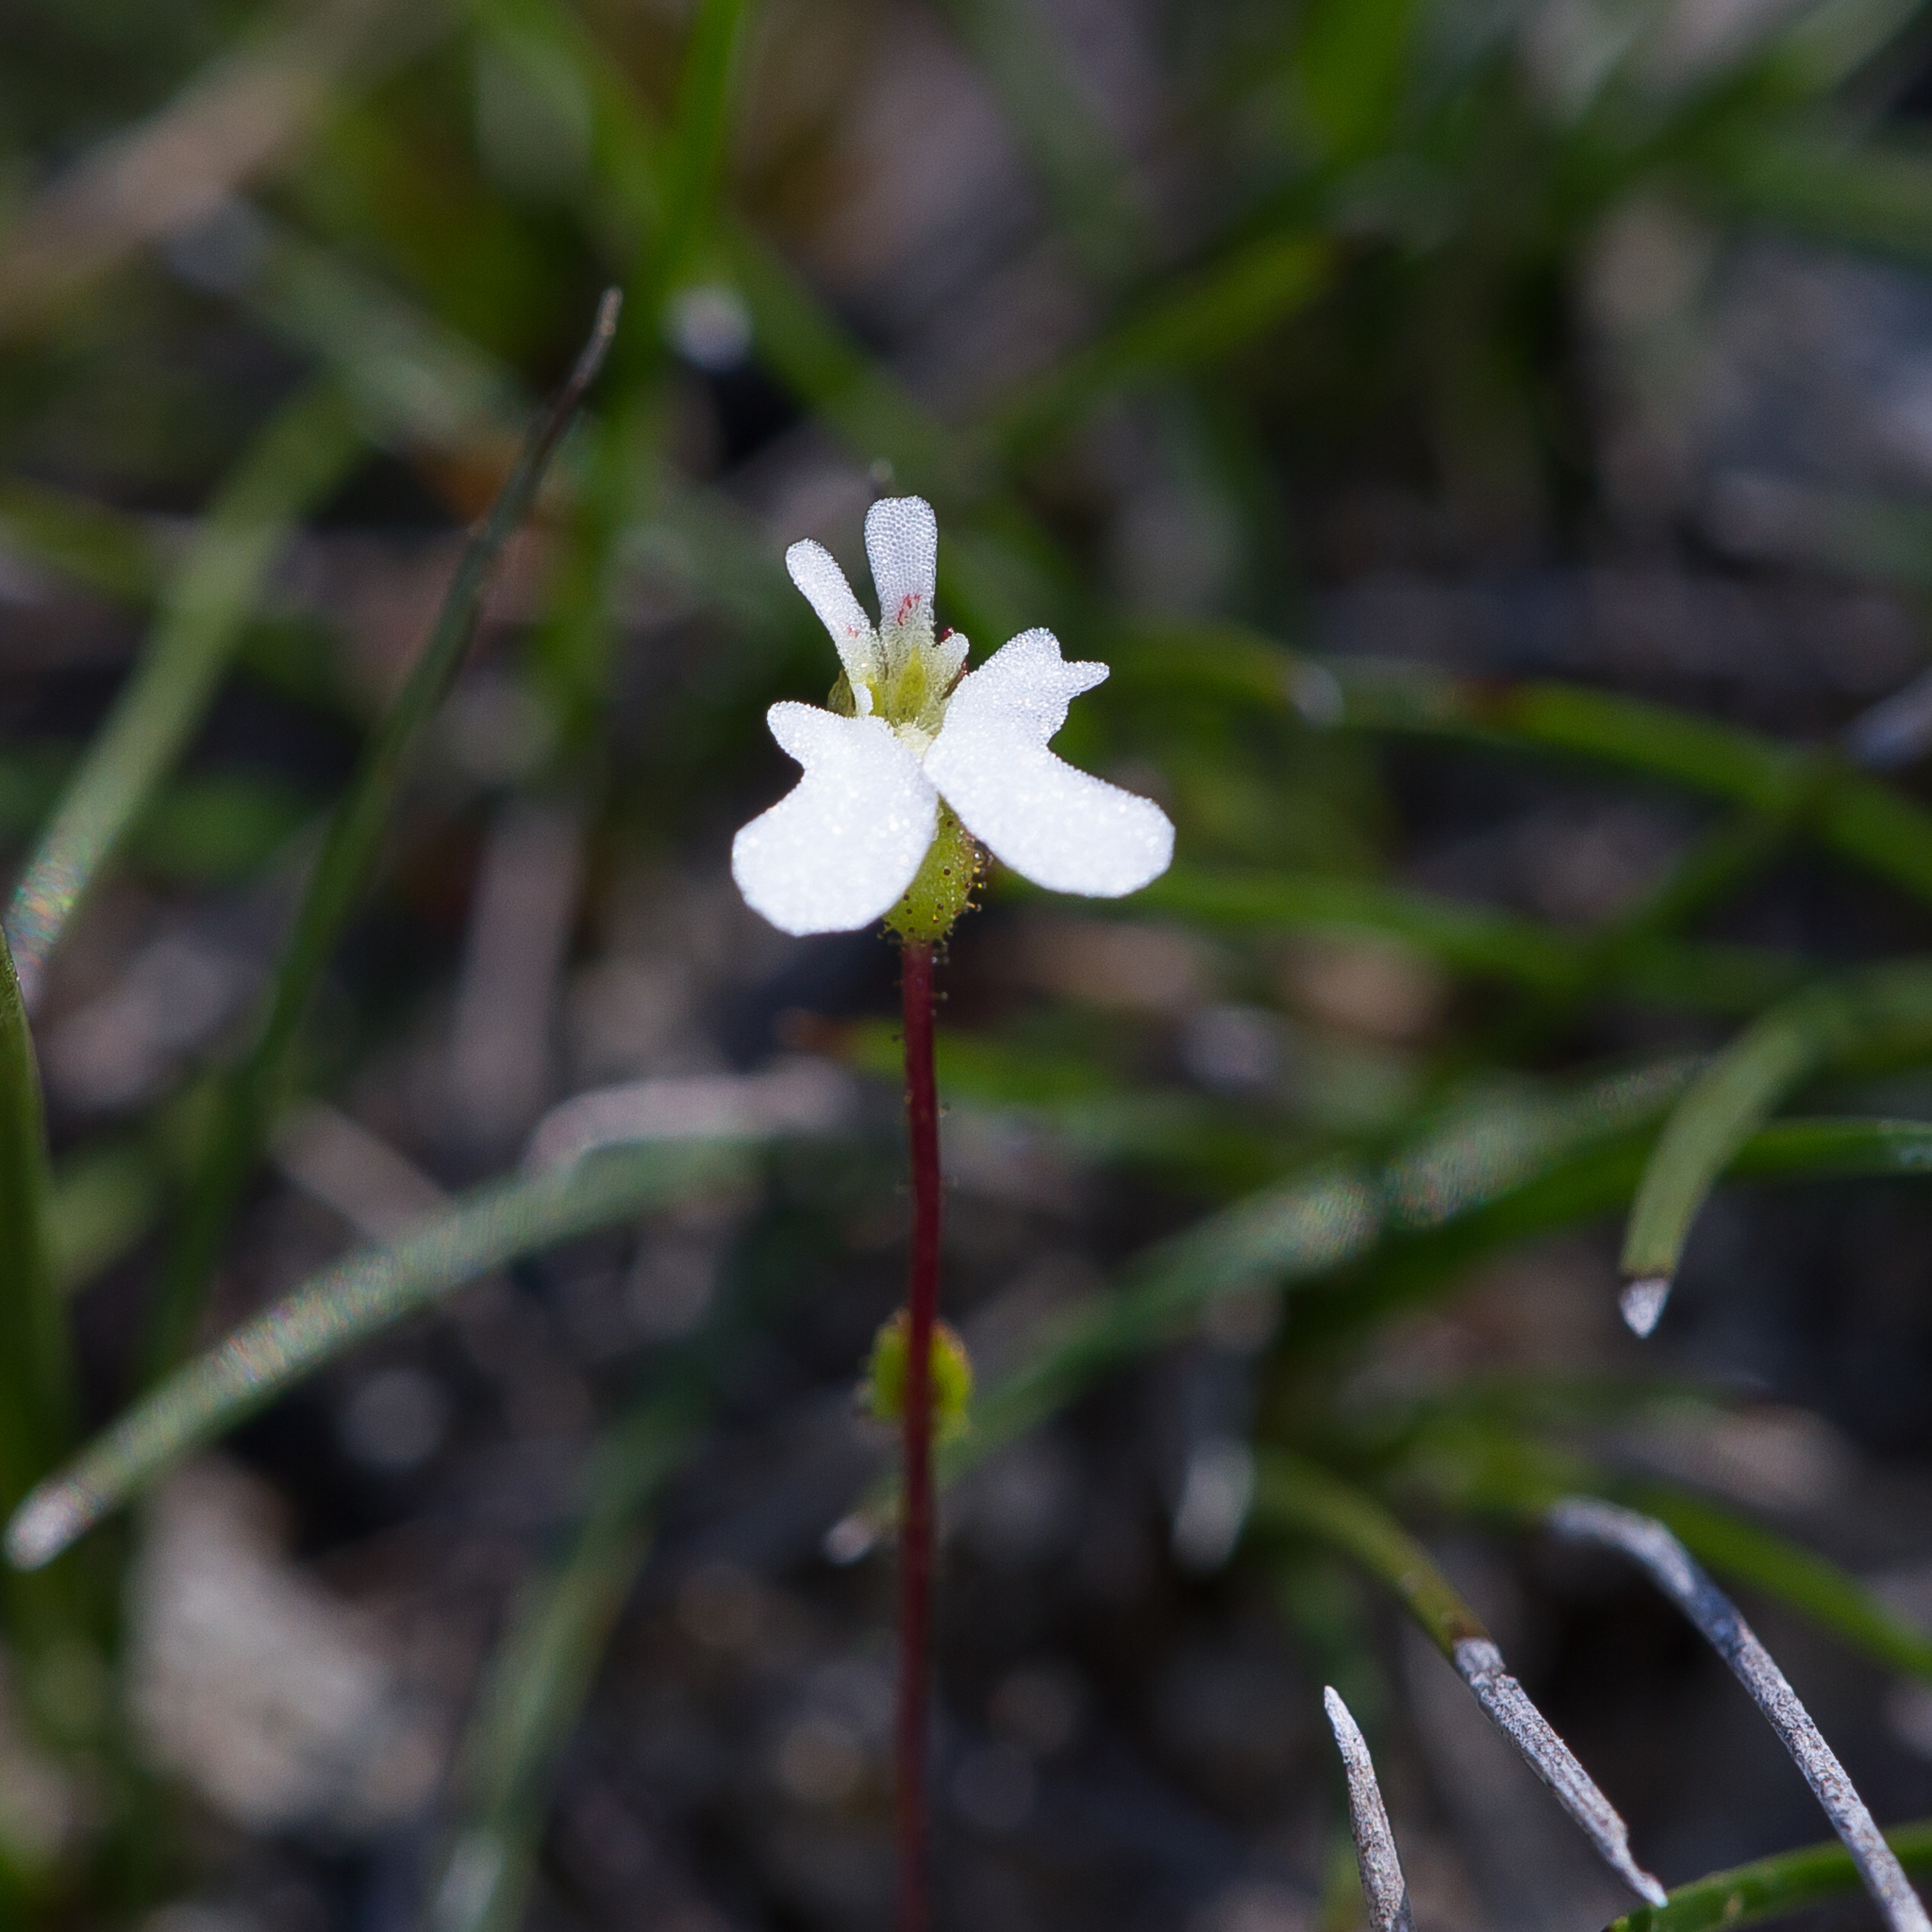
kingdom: Plantae
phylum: Tracheophyta
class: Magnoliopsida
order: Asterales
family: Stylidiaceae
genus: Stylidium
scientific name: Stylidium perpusillum
